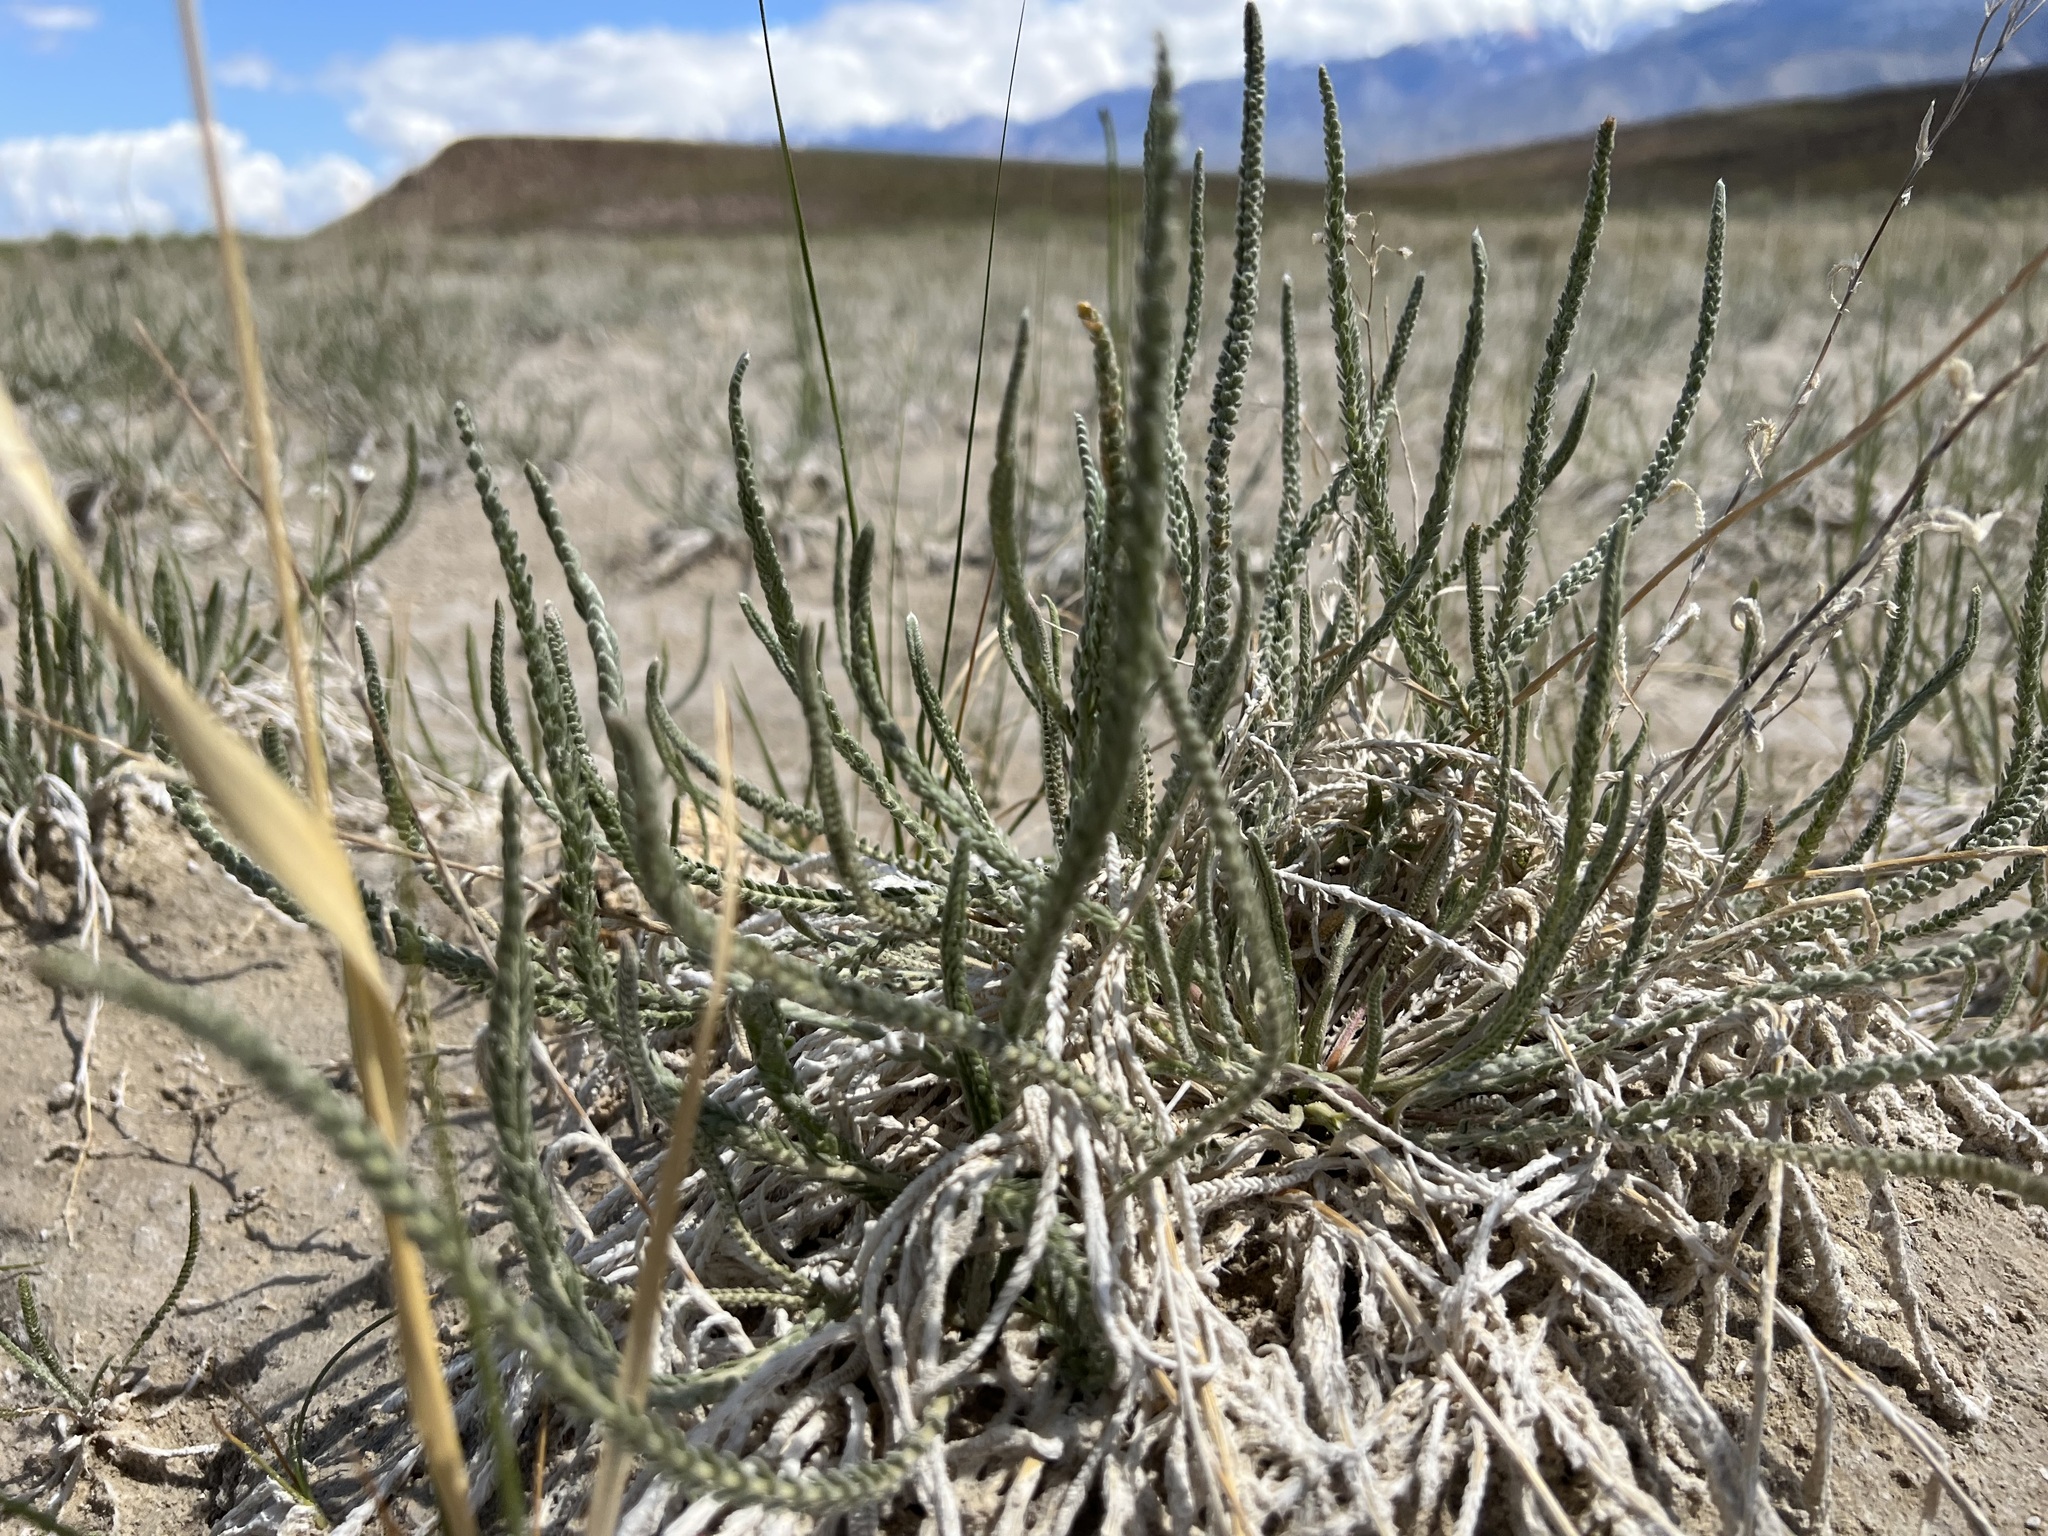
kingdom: Plantae
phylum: Tracheophyta
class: Magnoliopsida
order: Rosales
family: Rosaceae
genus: Potentilla
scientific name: Potentilla kingii
